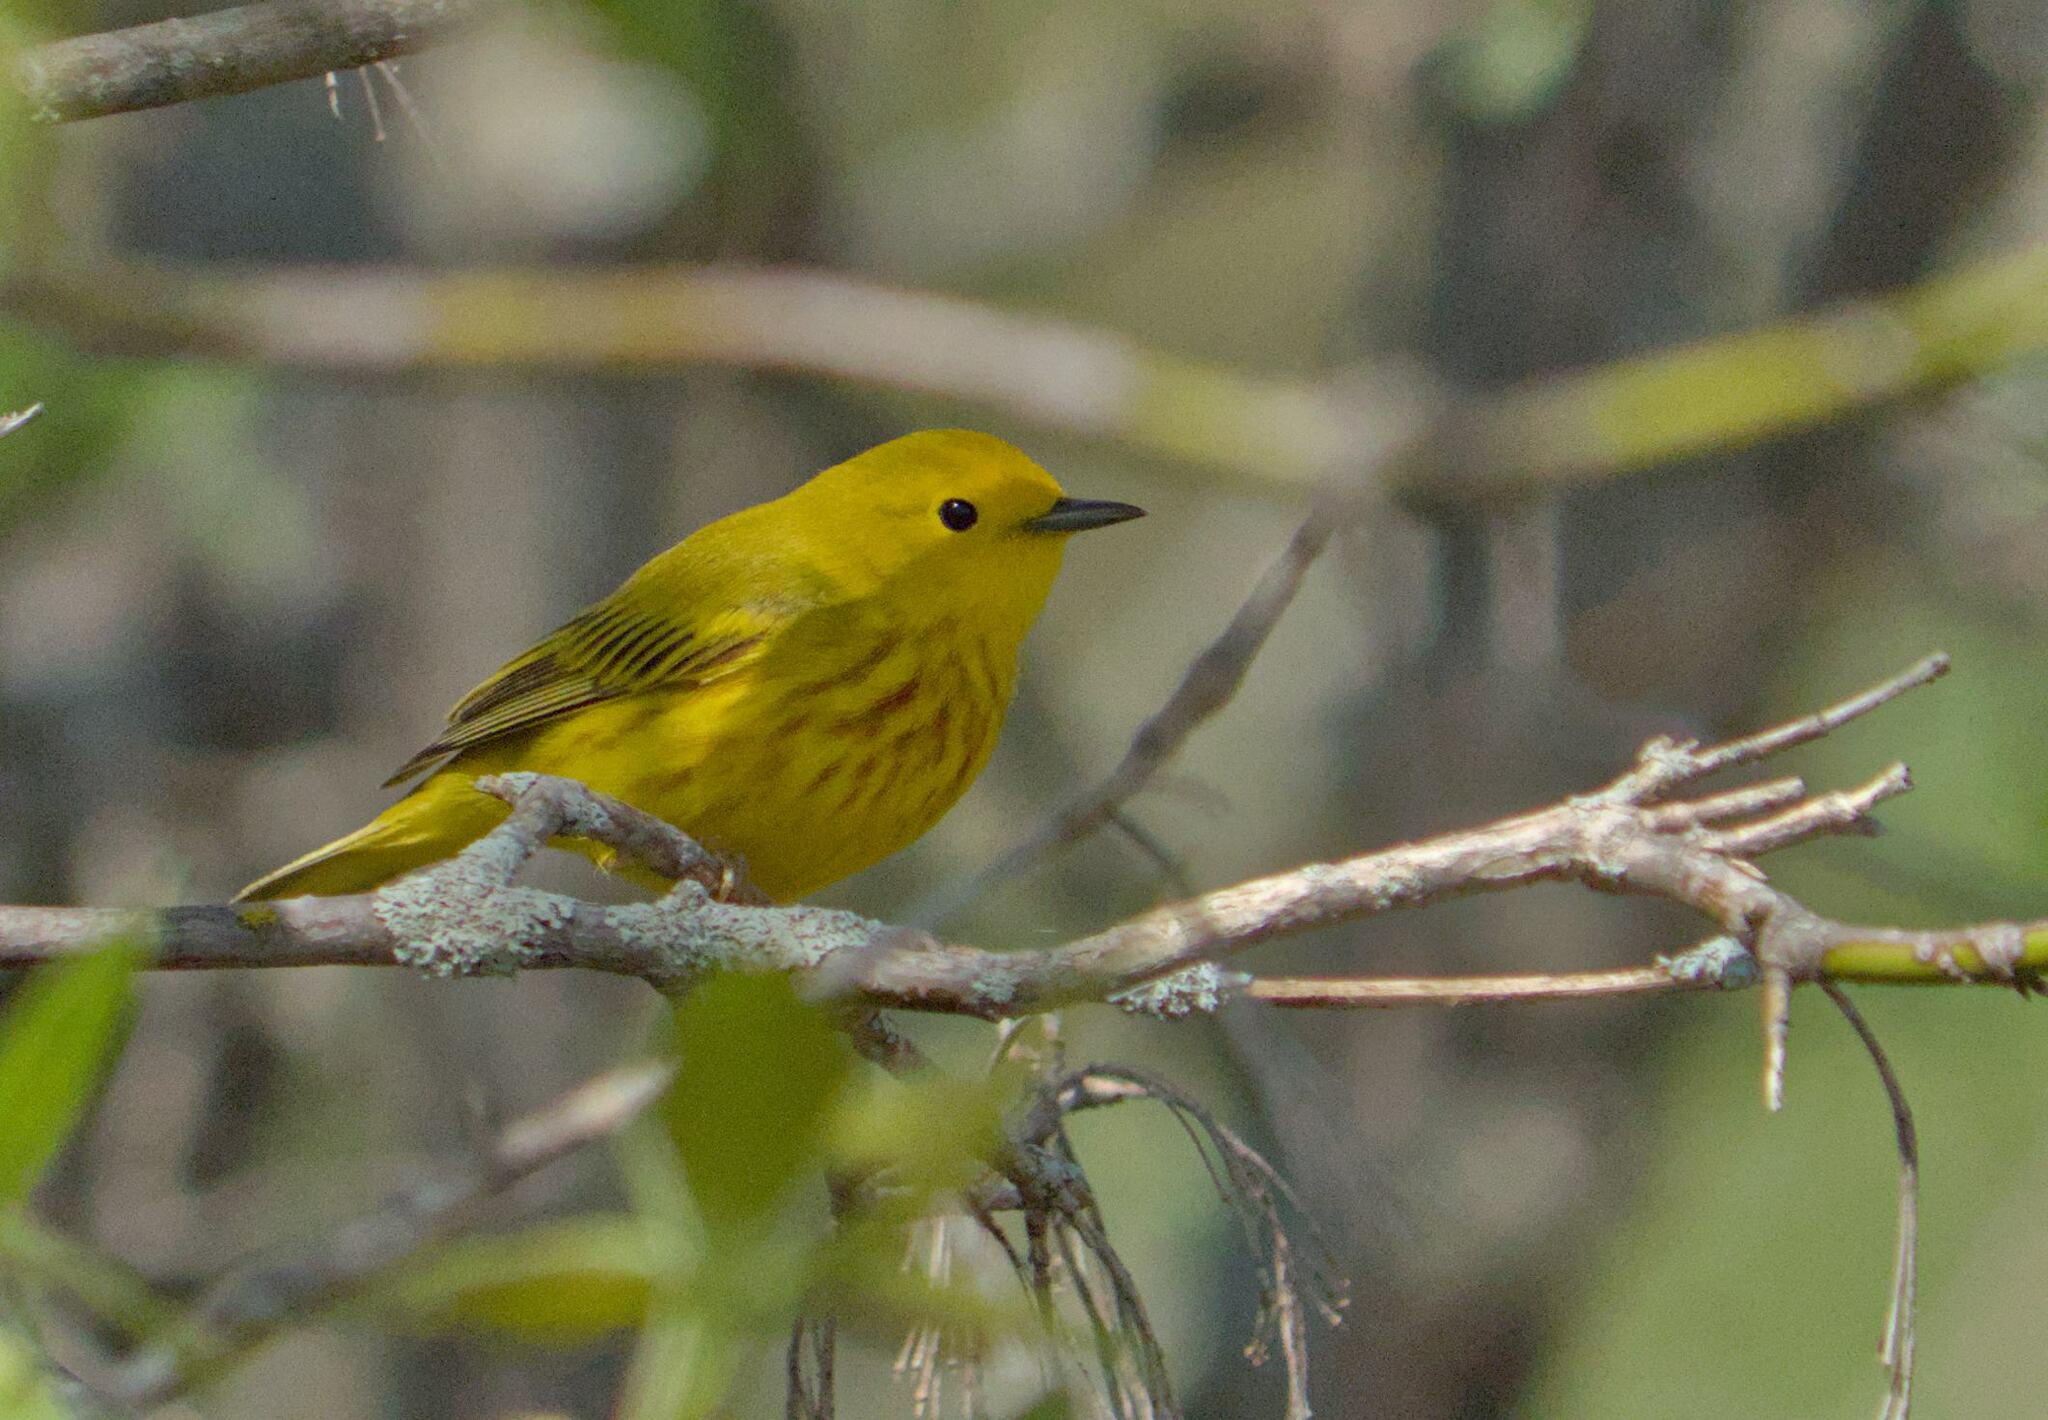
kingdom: Animalia
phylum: Chordata
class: Aves
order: Passeriformes
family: Parulidae
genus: Setophaga
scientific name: Setophaga petechia
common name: Yellow warbler
